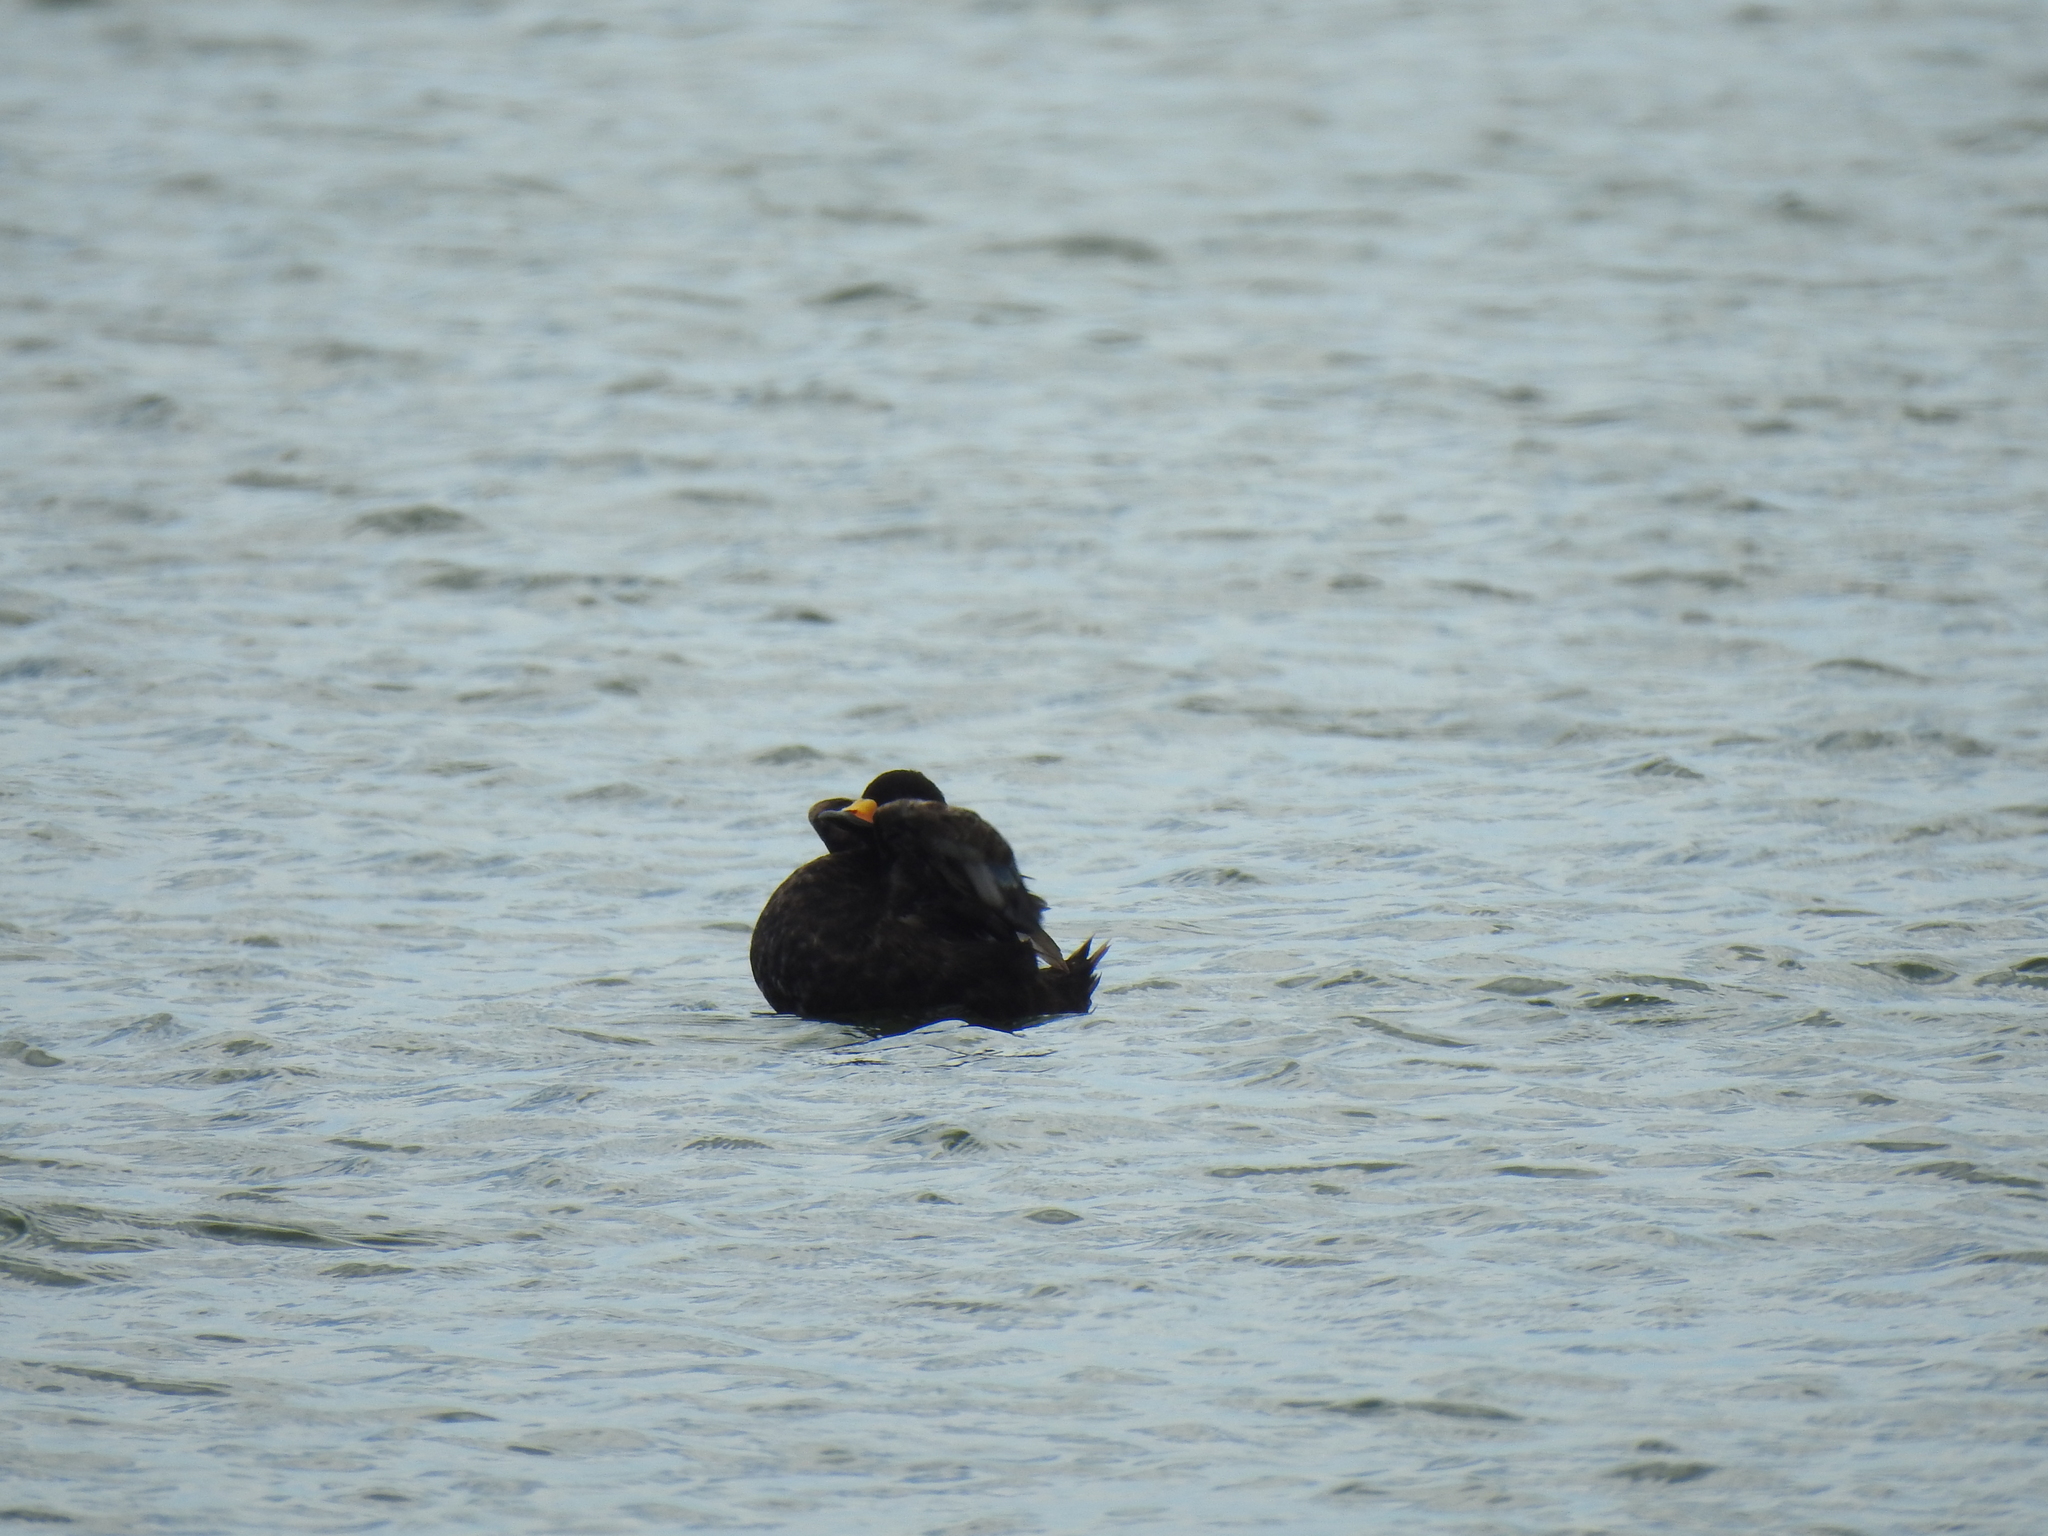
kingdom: Animalia
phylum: Chordata
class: Aves
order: Anseriformes
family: Anatidae
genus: Melanitta
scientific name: Melanitta americana
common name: Black scoter
